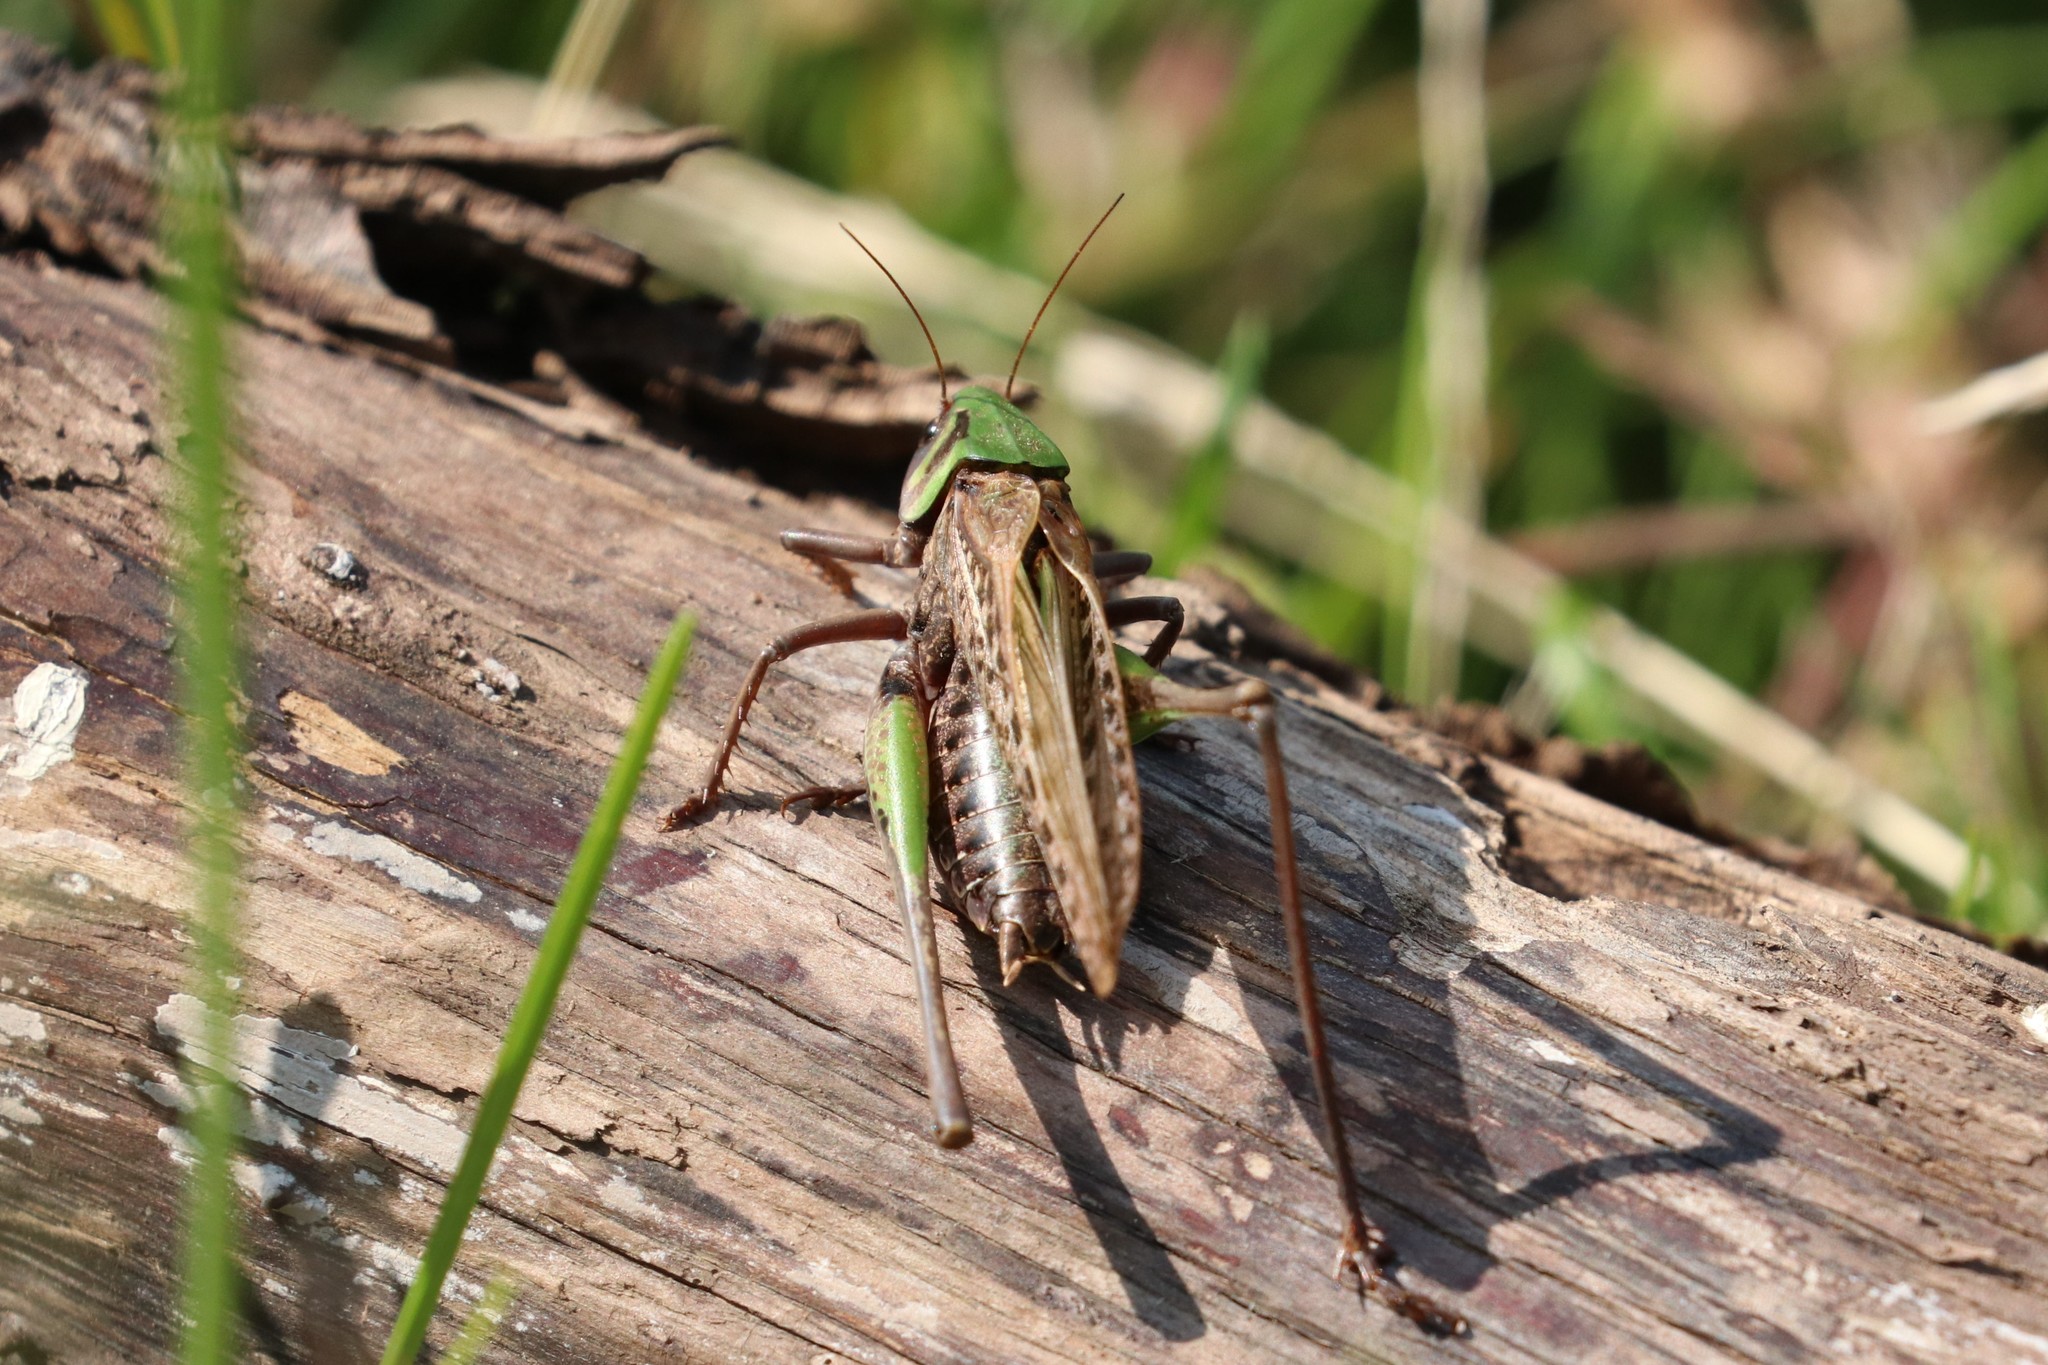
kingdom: Animalia
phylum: Arthropoda
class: Insecta
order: Orthoptera
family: Tettigoniidae
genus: Decticus
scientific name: Decticus verrucivorus
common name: Wart-biter
